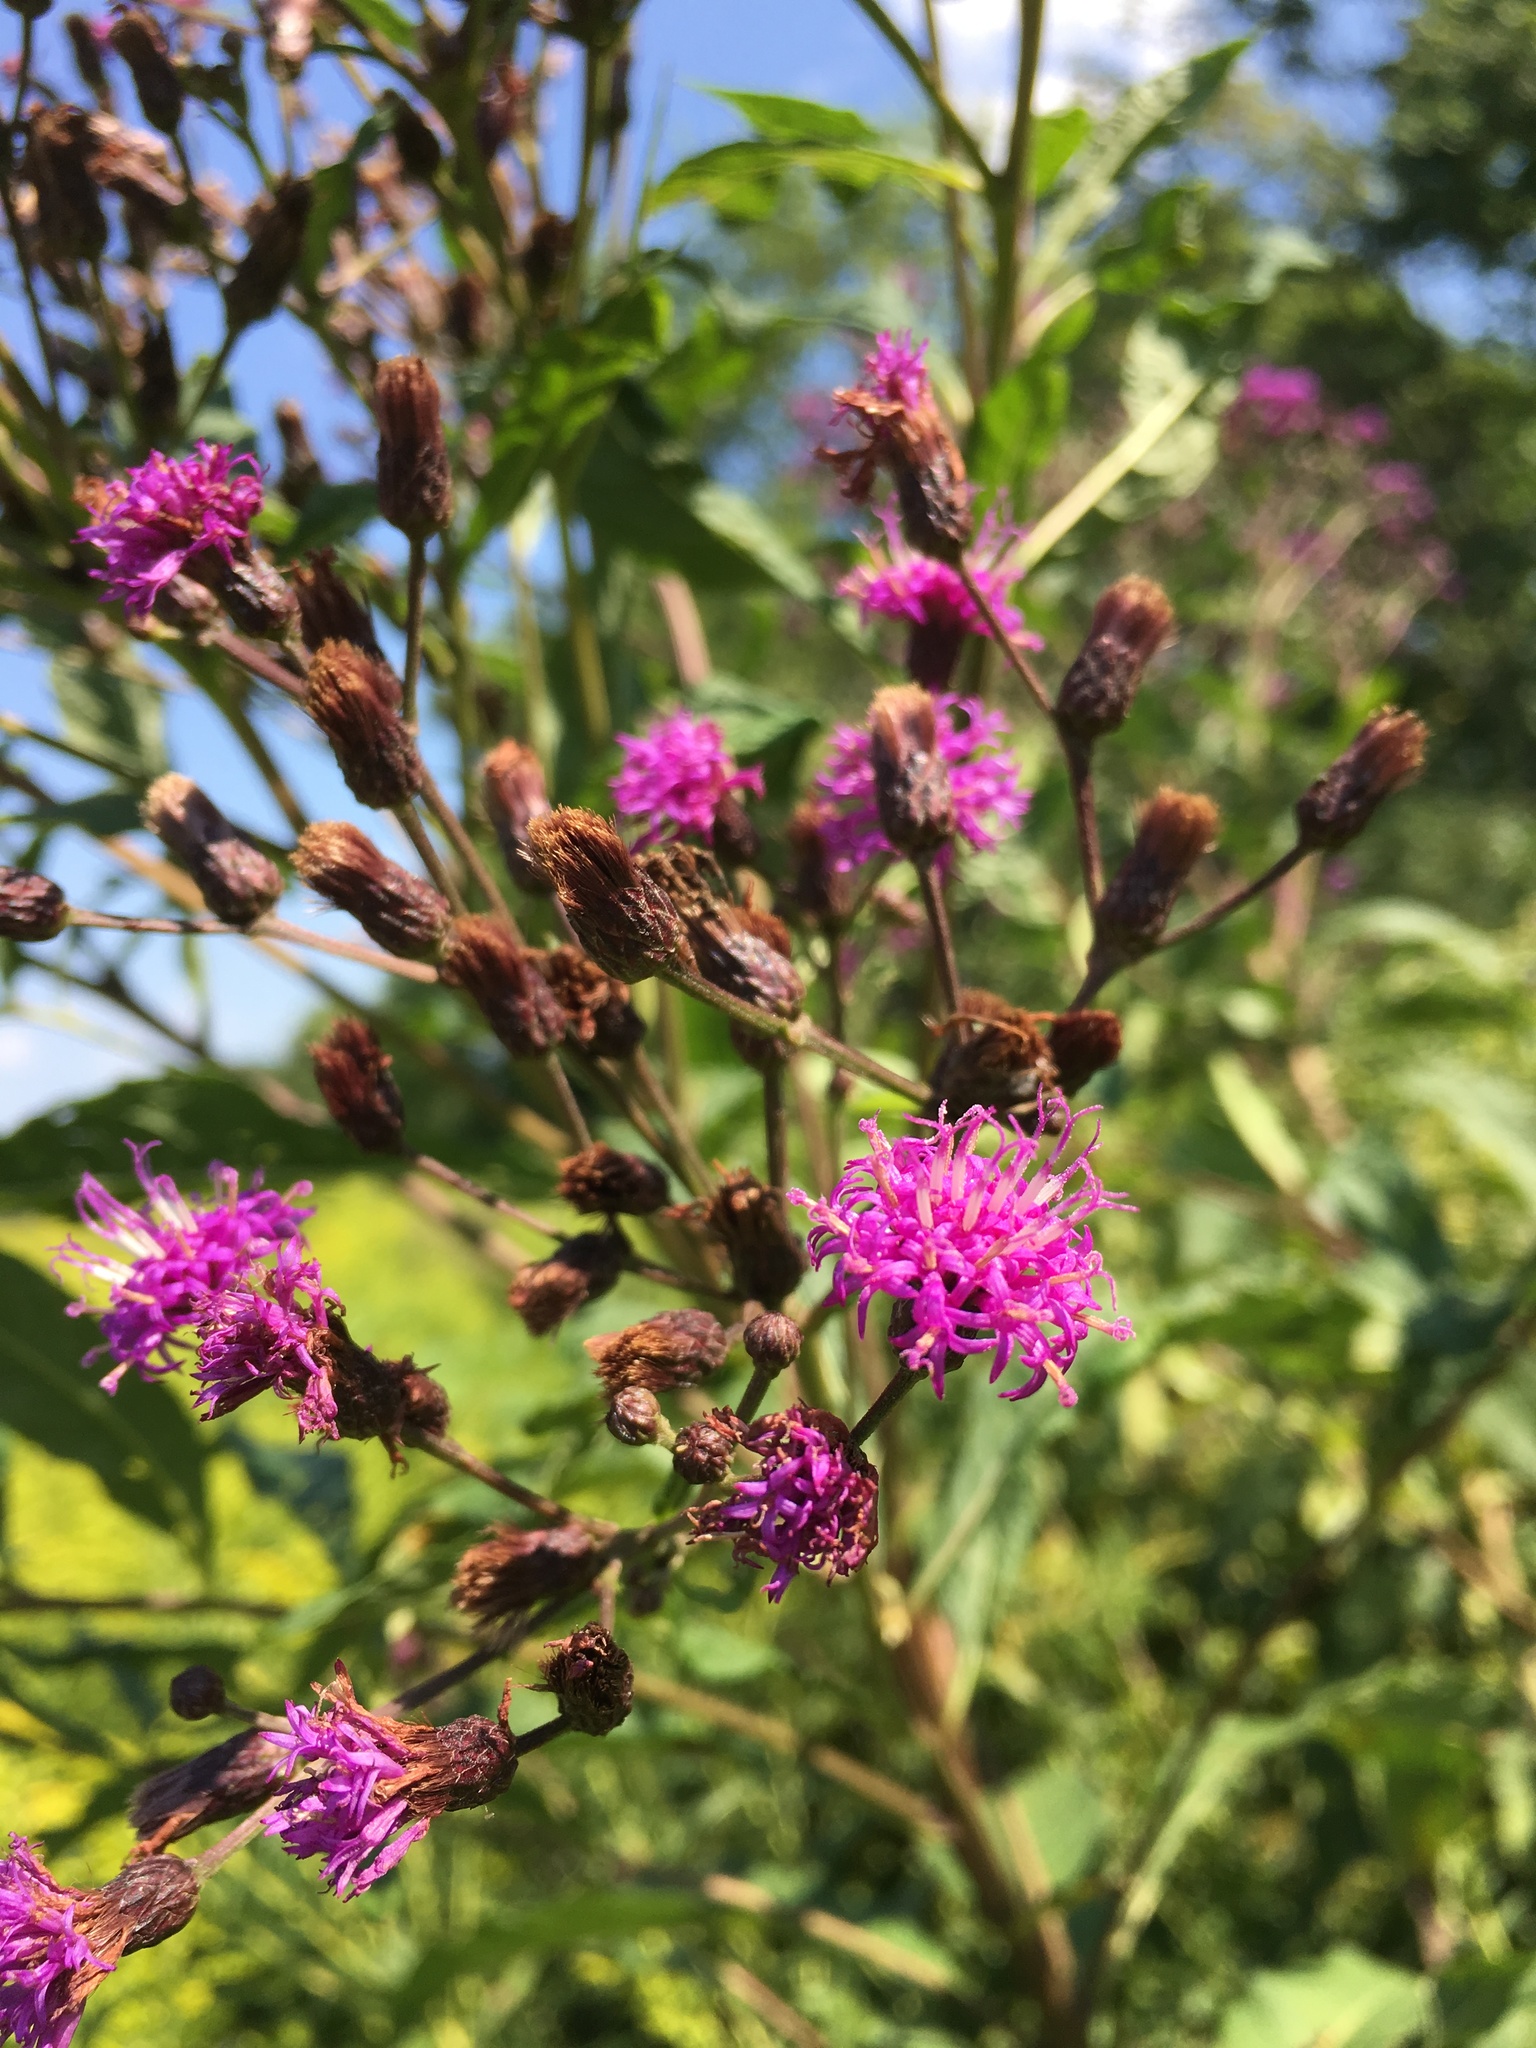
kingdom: Plantae
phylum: Tracheophyta
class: Magnoliopsida
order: Asterales
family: Asteraceae
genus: Vernonia
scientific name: Vernonia gigantea
